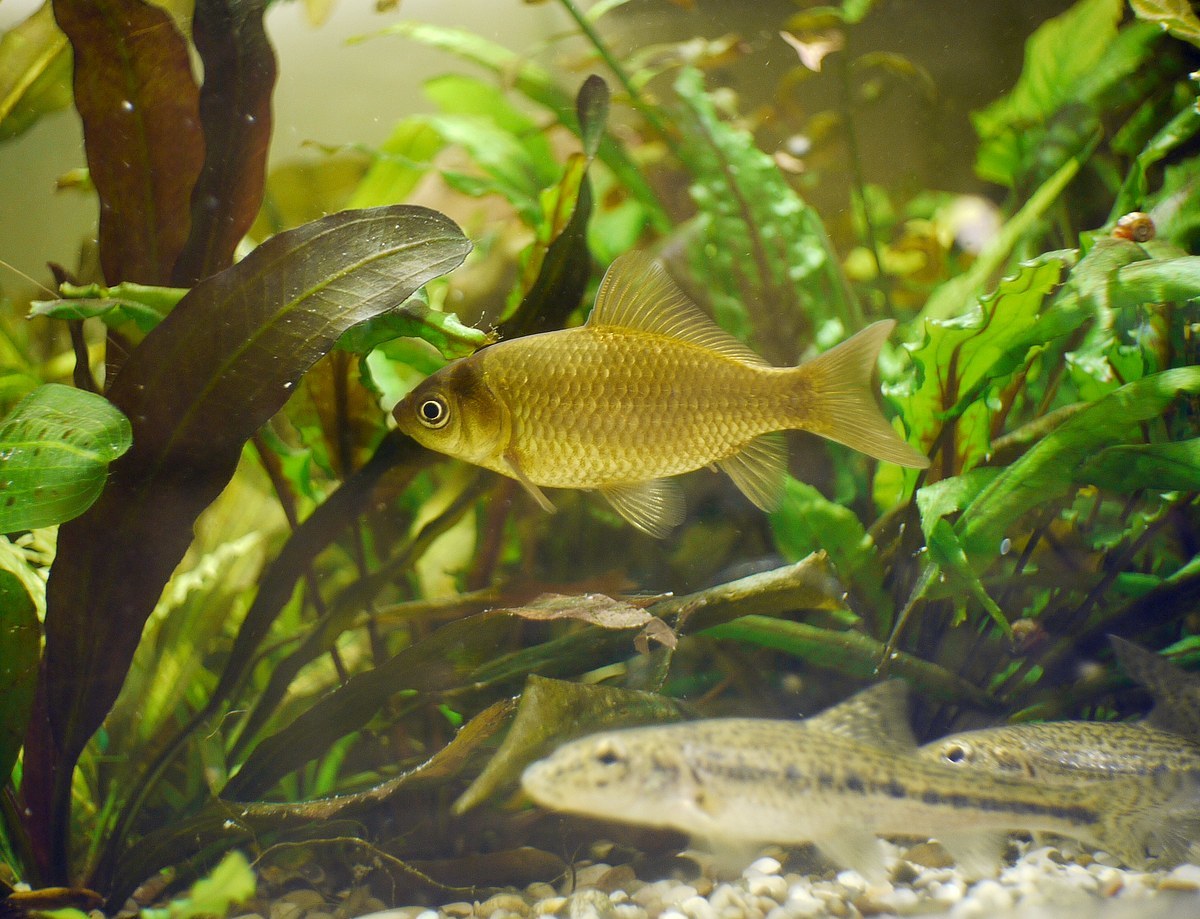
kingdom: Animalia
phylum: Chordata
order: Cypriniformes
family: Cyprinidae
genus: Carassius
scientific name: Carassius gibelio
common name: Prussian carp
